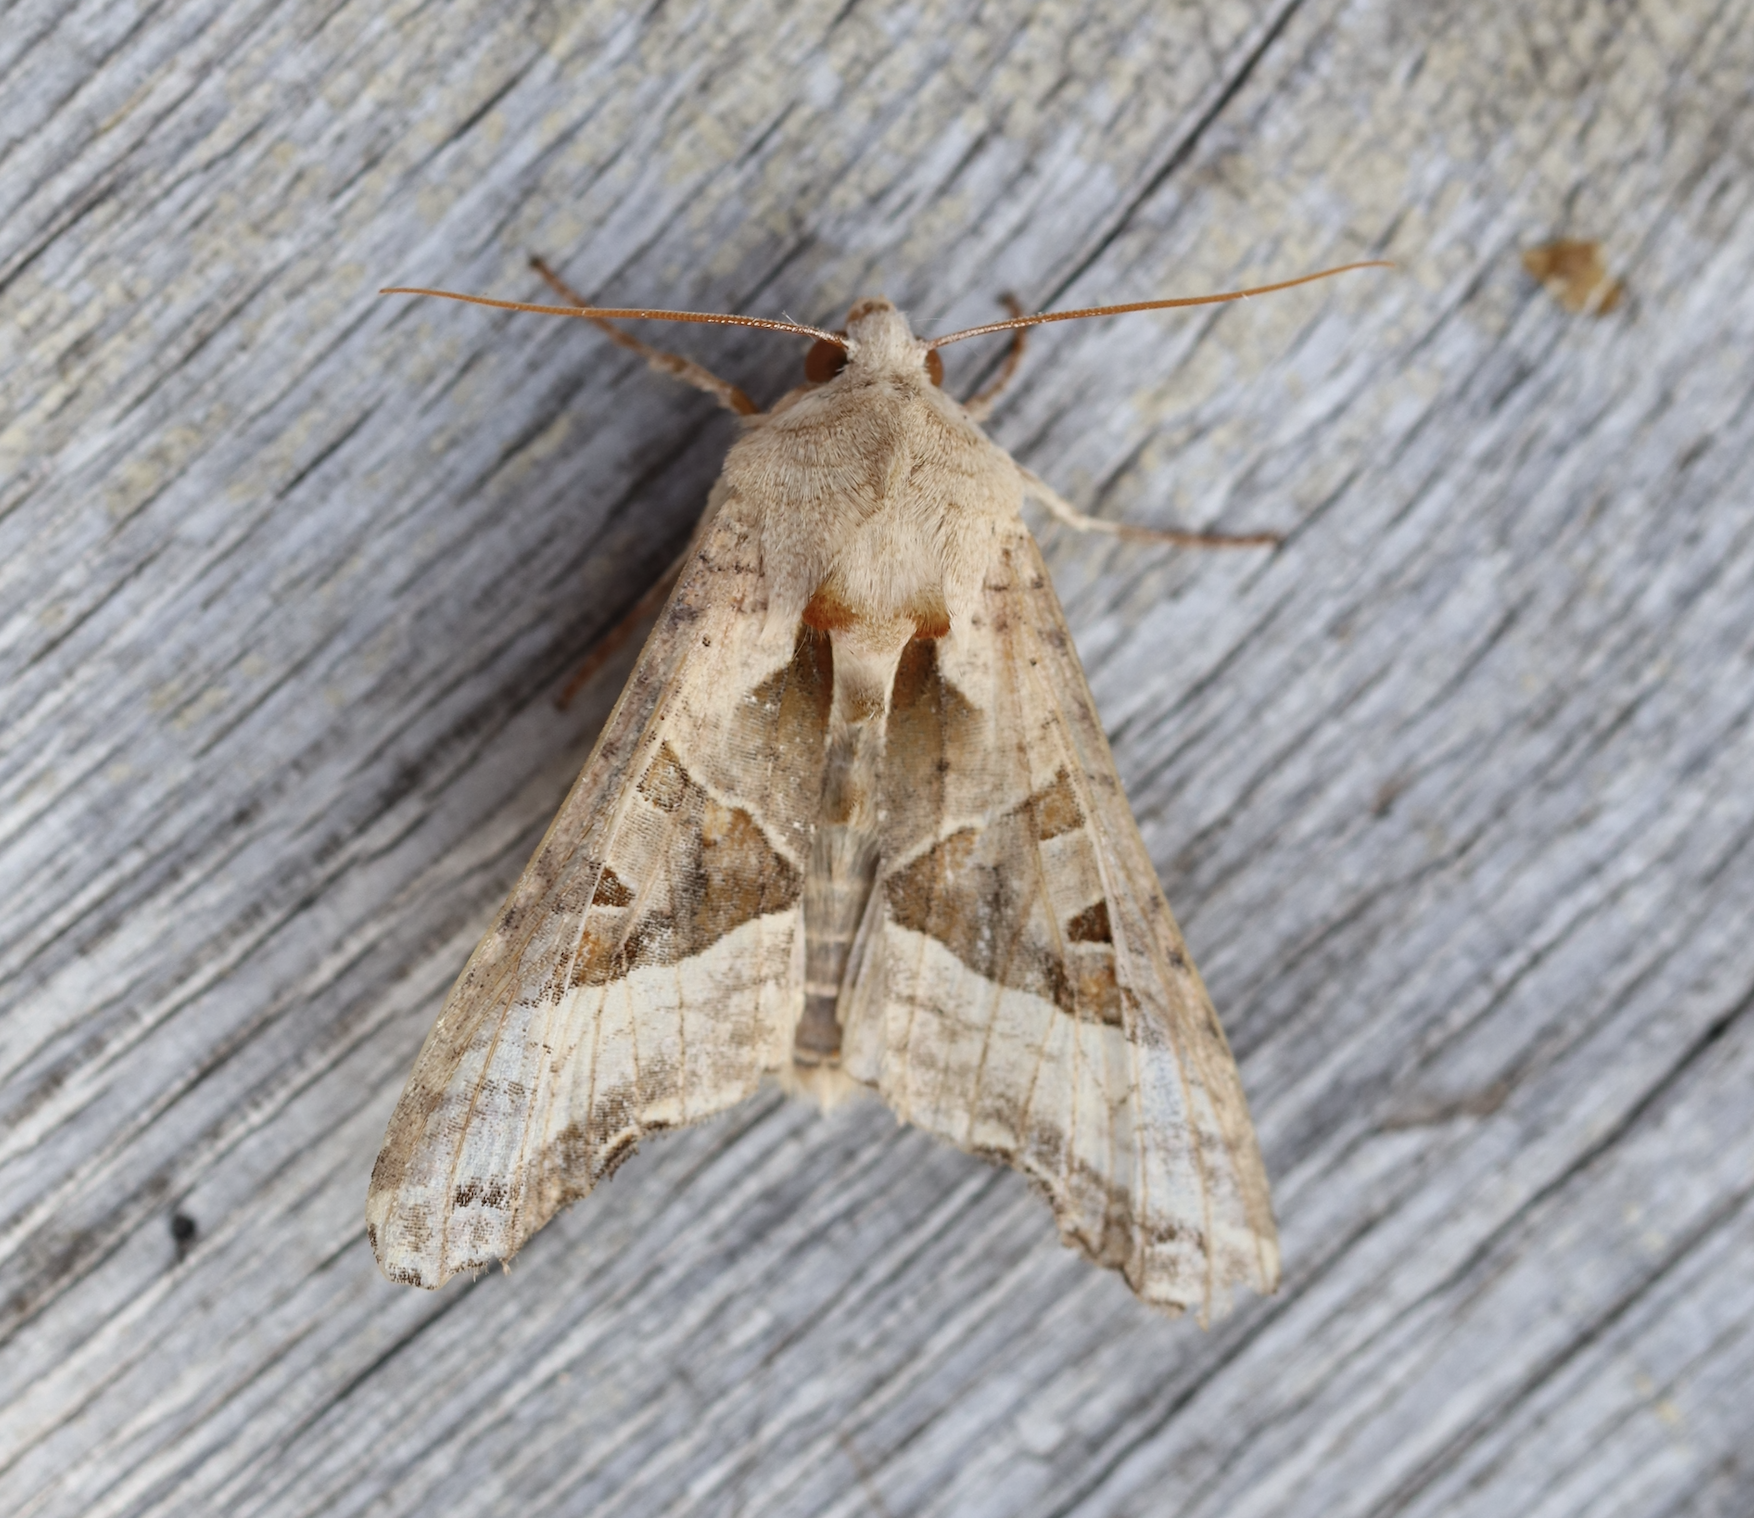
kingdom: Animalia
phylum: Arthropoda
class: Insecta
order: Lepidoptera
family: Noctuidae
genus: Phlogophora
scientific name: Phlogophora meticulosa
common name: Angle shades
